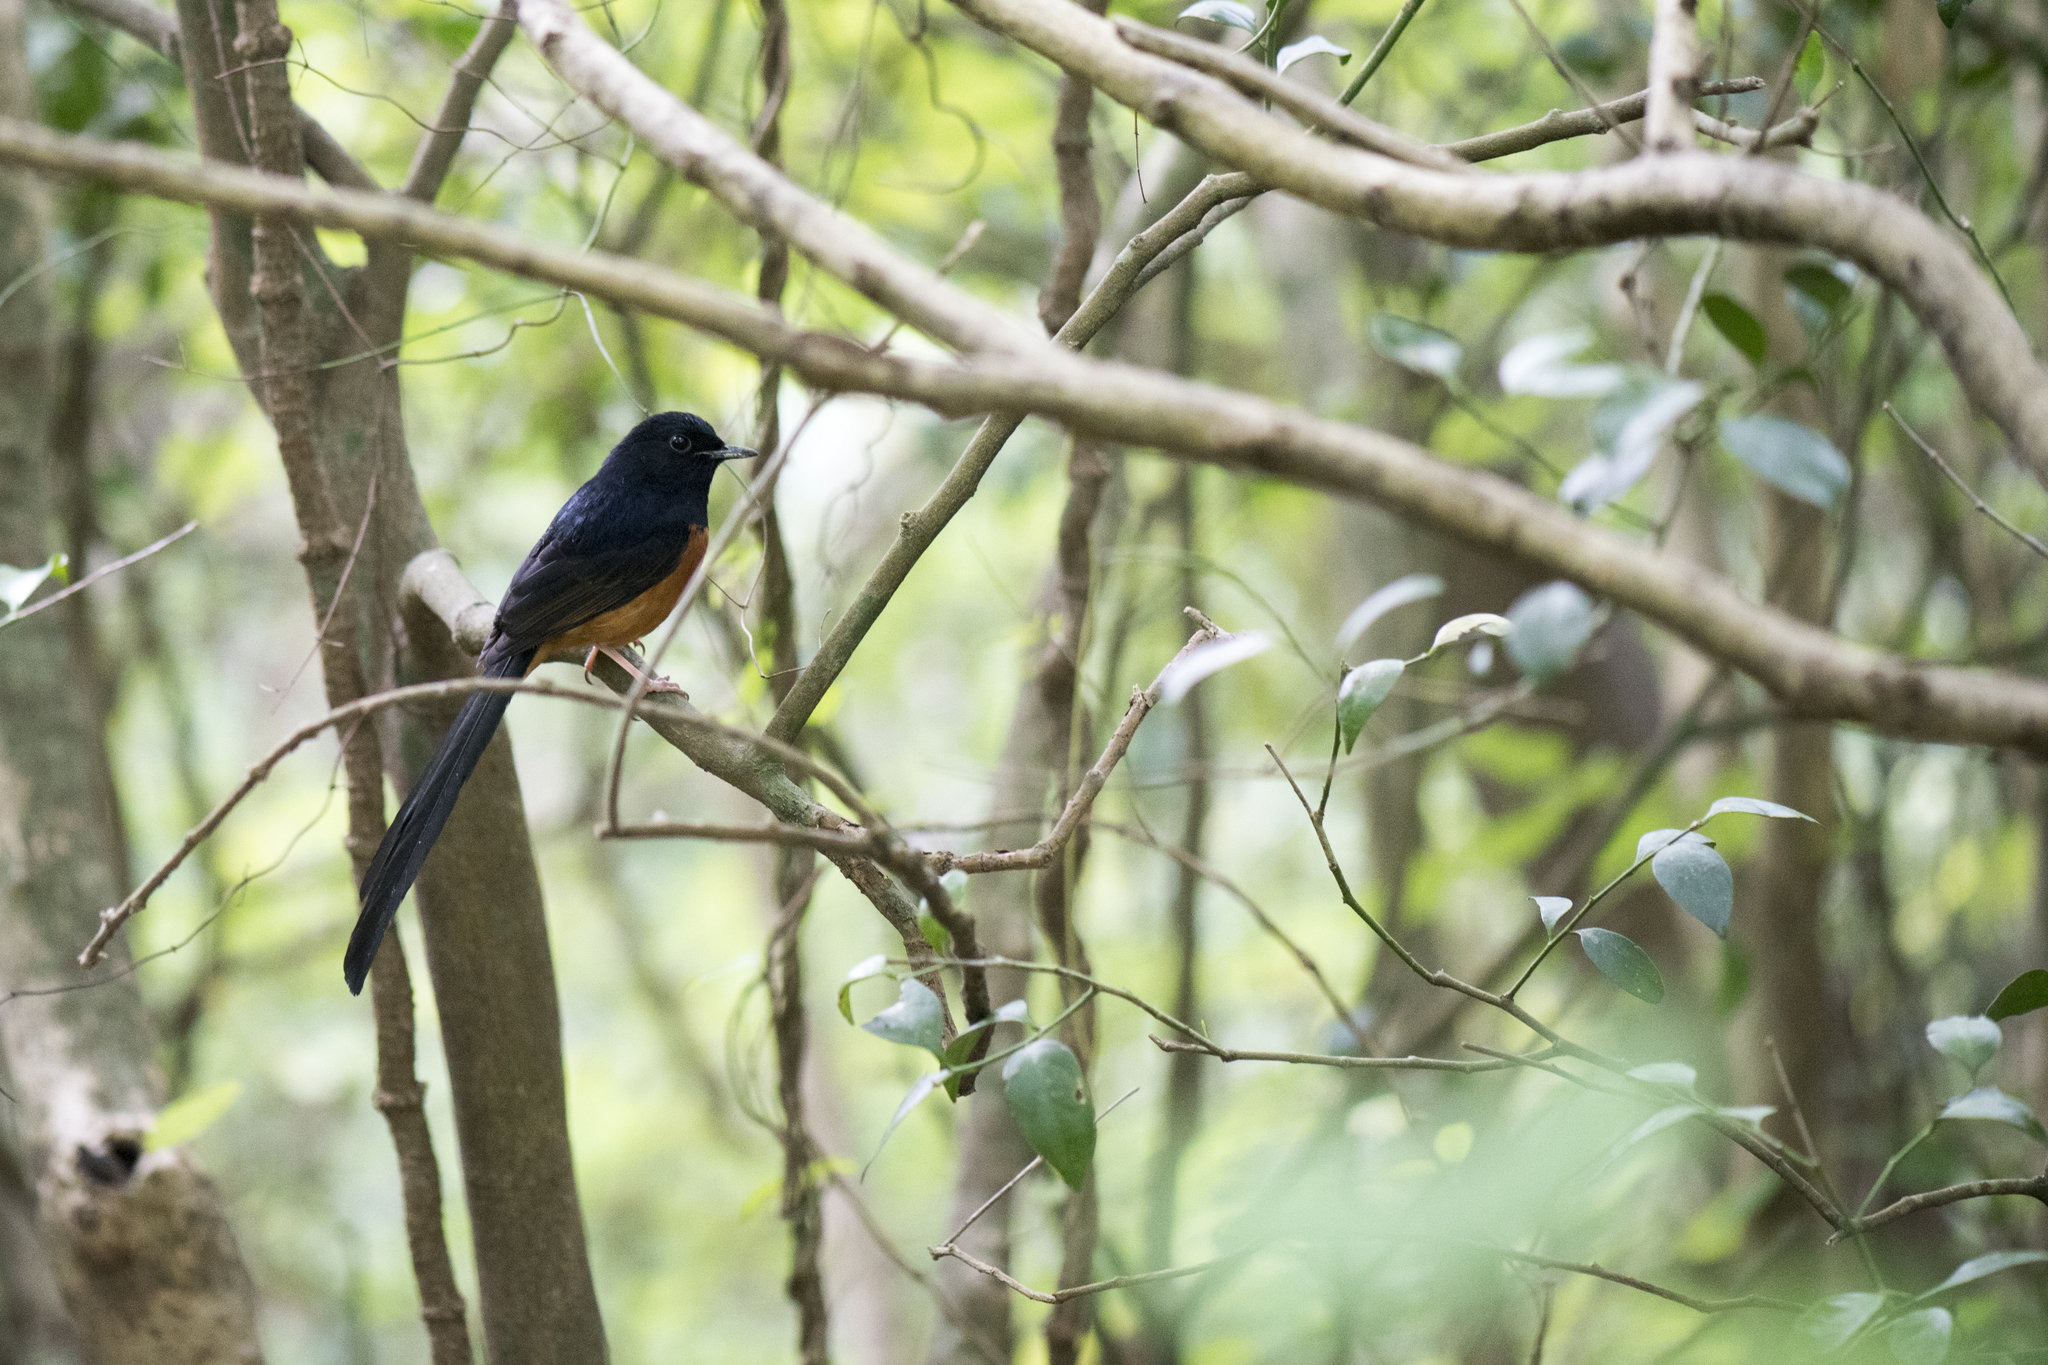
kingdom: Animalia
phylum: Chordata
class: Aves
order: Passeriformes
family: Muscicapidae
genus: Copsychus
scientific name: Copsychus malabaricus
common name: White-rumped shama
